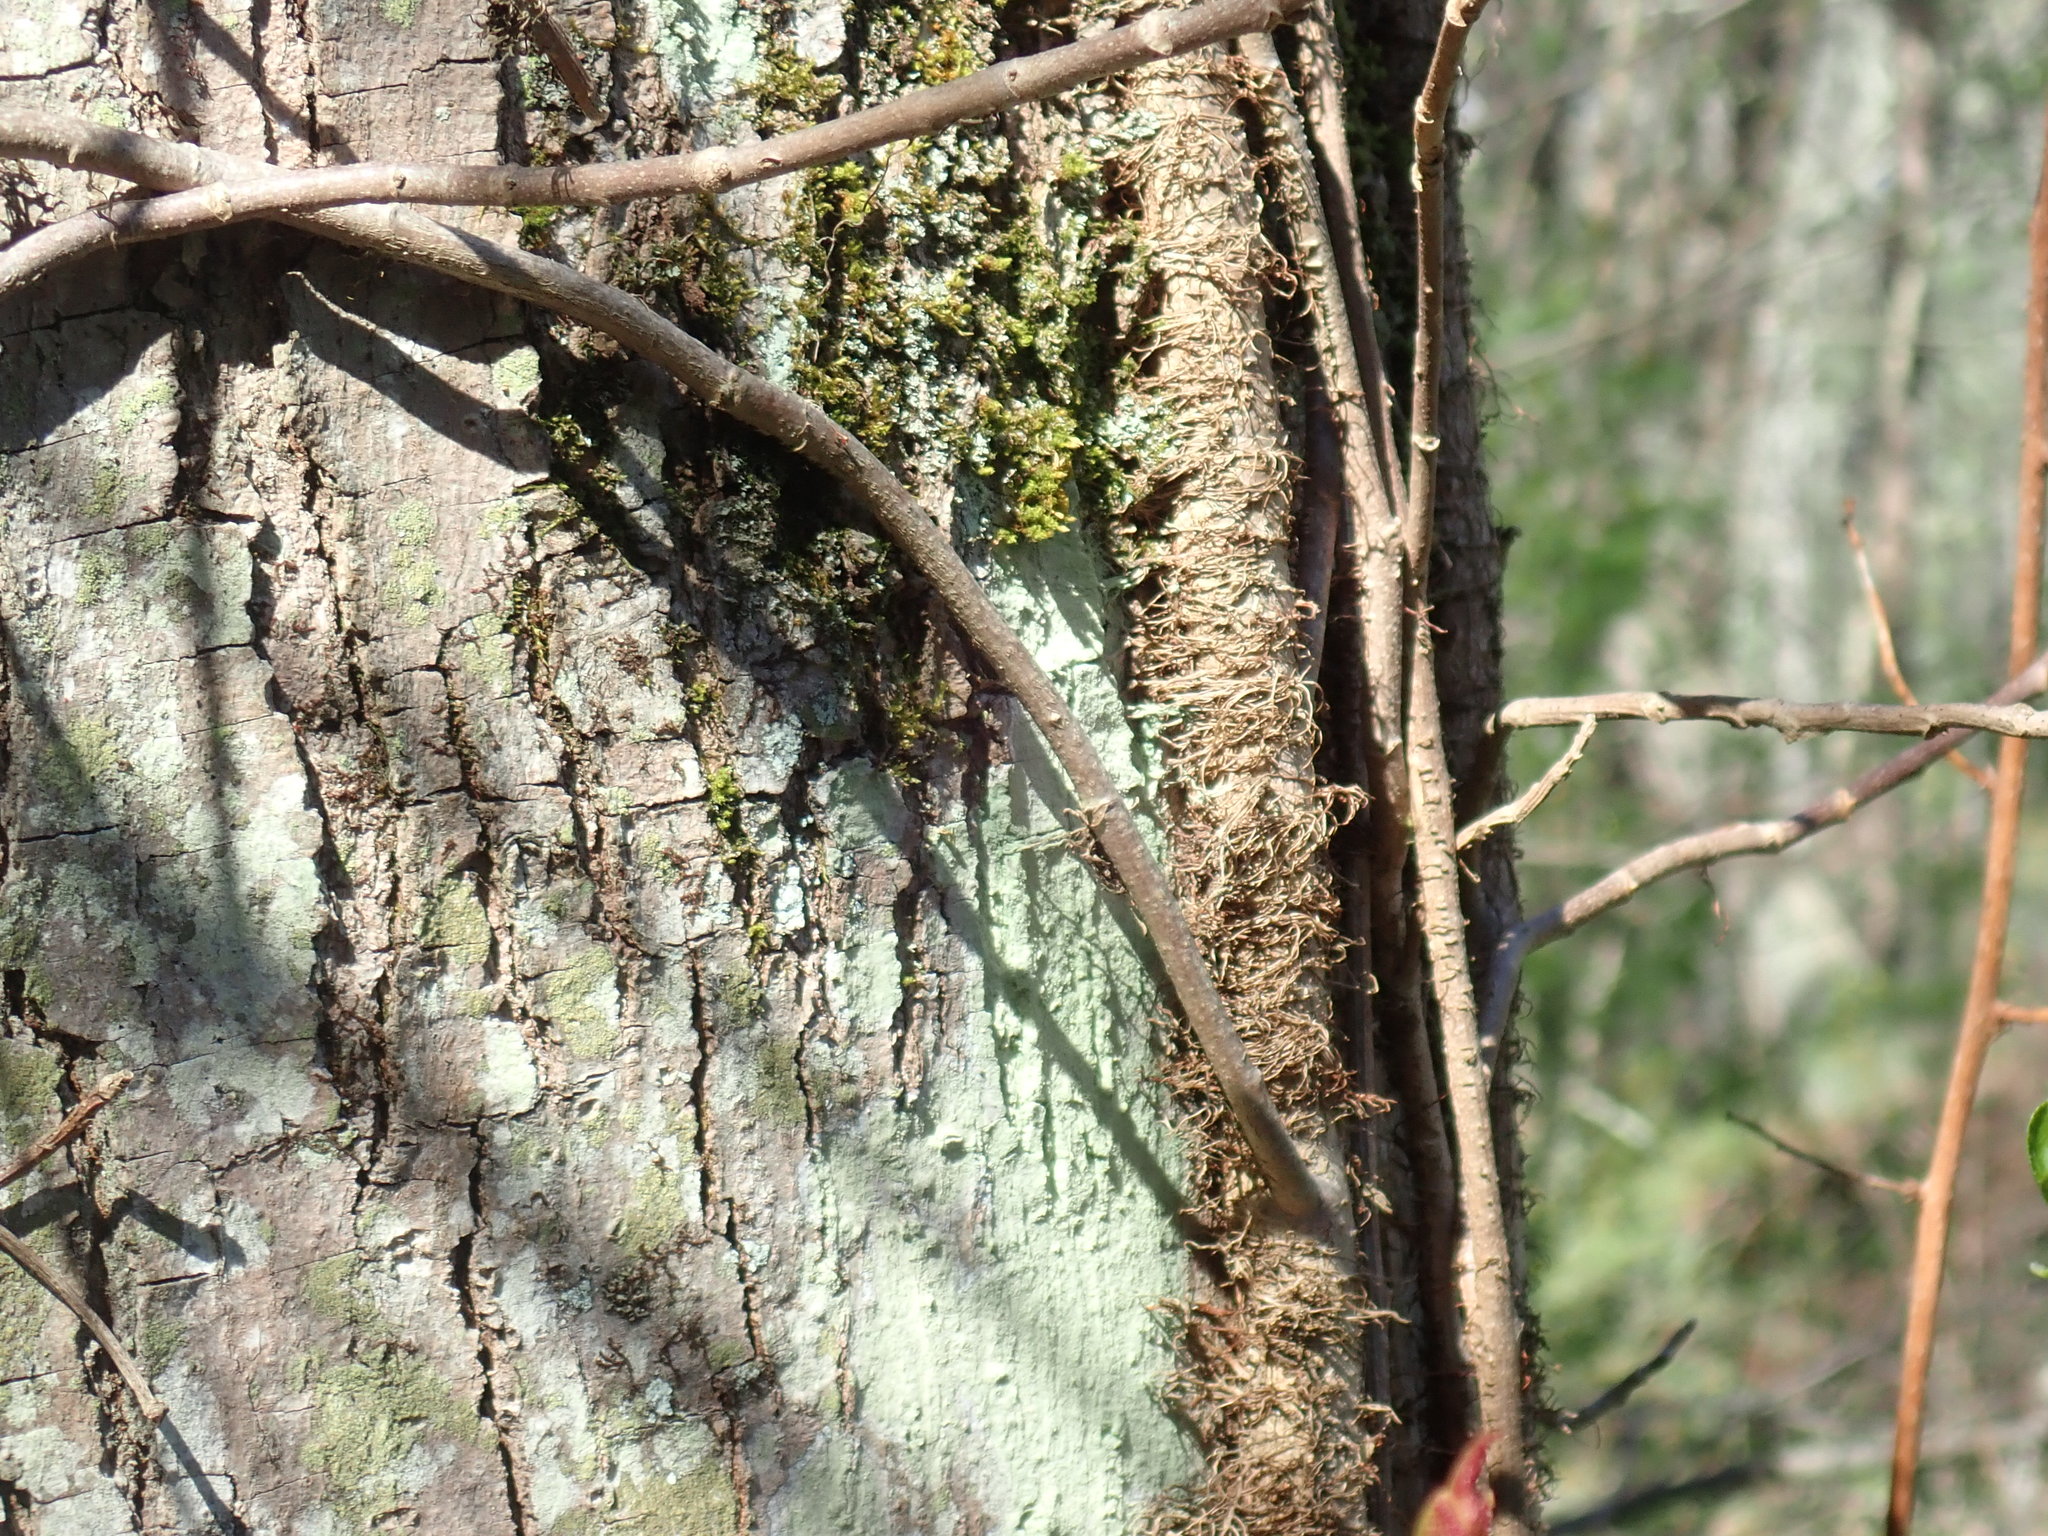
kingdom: Plantae
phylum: Tracheophyta
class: Magnoliopsida
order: Sapindales
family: Anacardiaceae
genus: Toxicodendron
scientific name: Toxicodendron radicans
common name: Poison ivy
